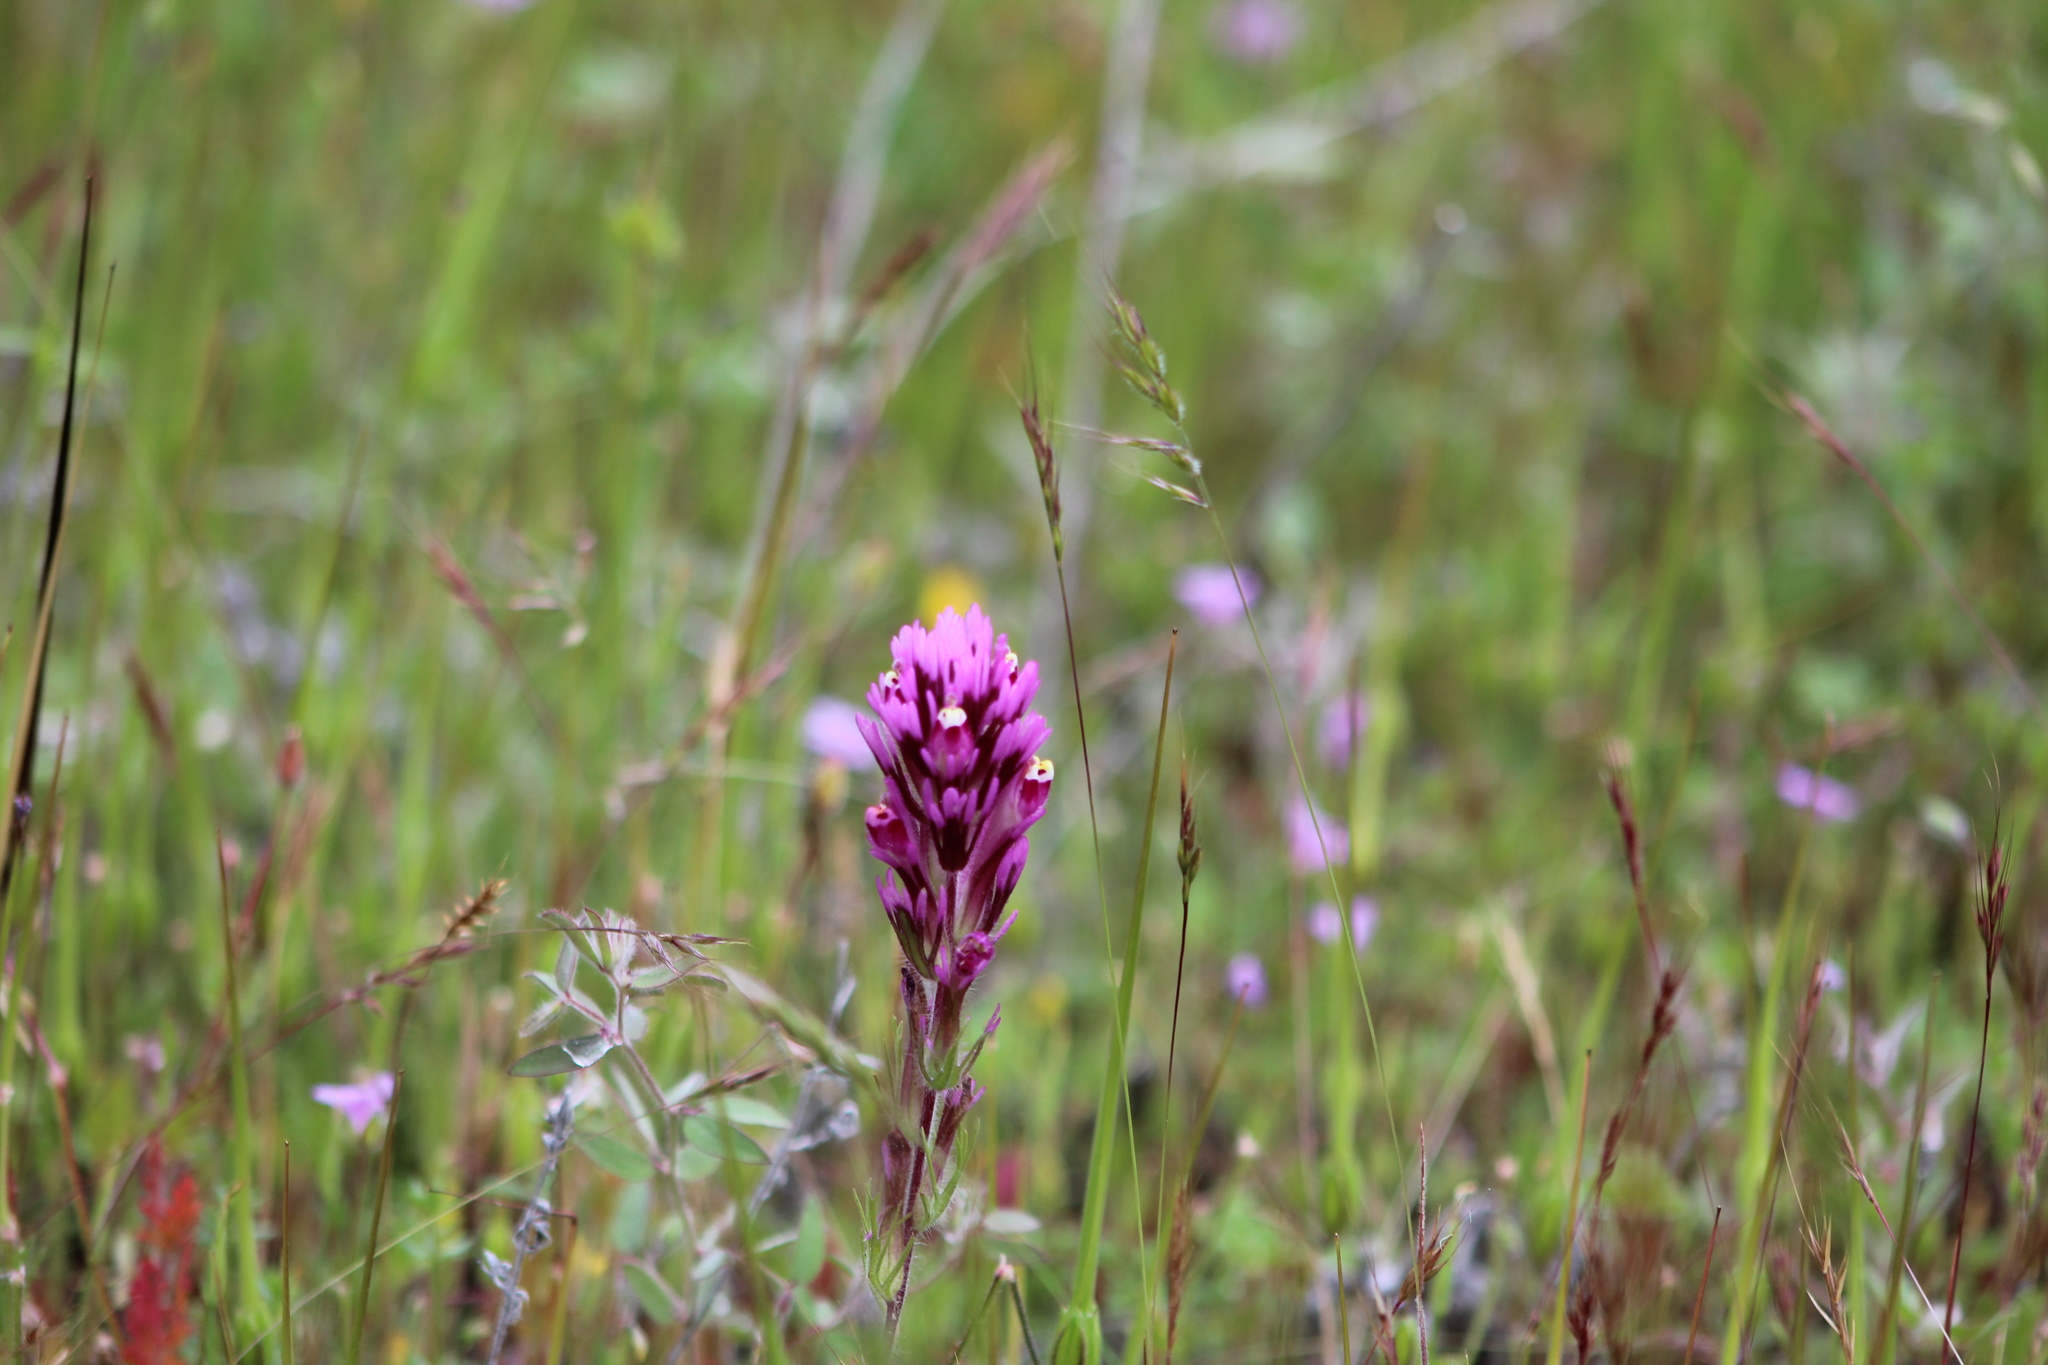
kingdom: Plantae
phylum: Tracheophyta
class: Magnoliopsida
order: Lamiales
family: Orobanchaceae
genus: Castilleja
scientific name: Castilleja exserta
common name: Purple owl-clover
